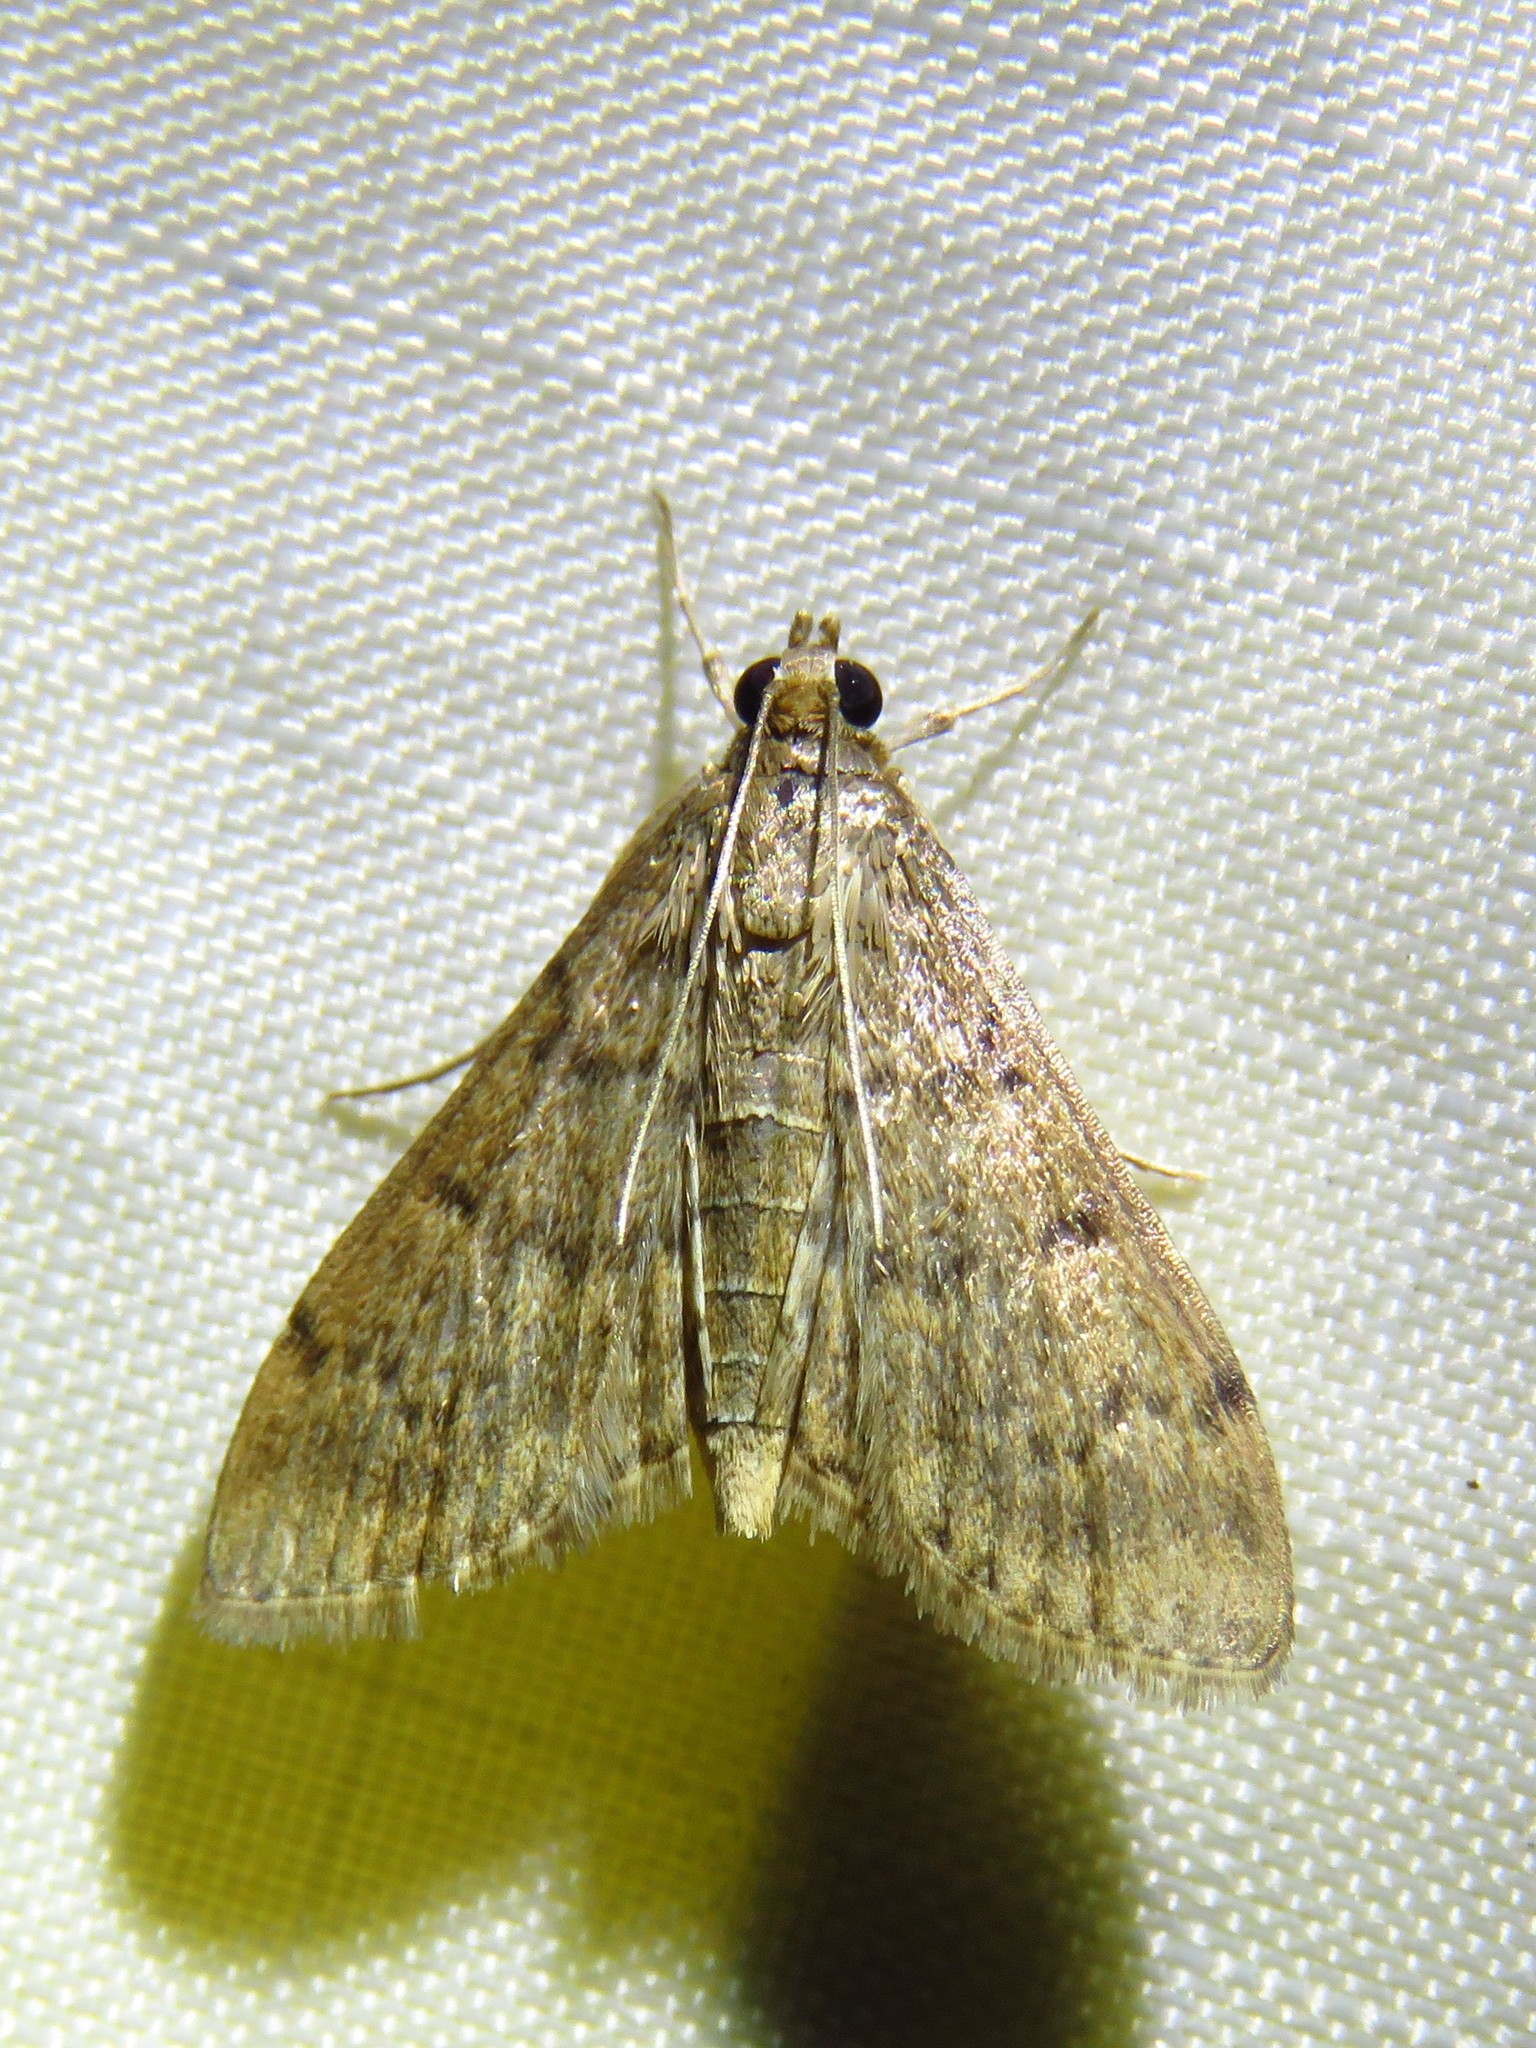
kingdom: Animalia
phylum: Arthropoda
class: Insecta
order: Lepidoptera
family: Crambidae
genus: Herpetogramma
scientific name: Herpetogramma phaeopteralis
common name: Dusky herpetogramma moth
